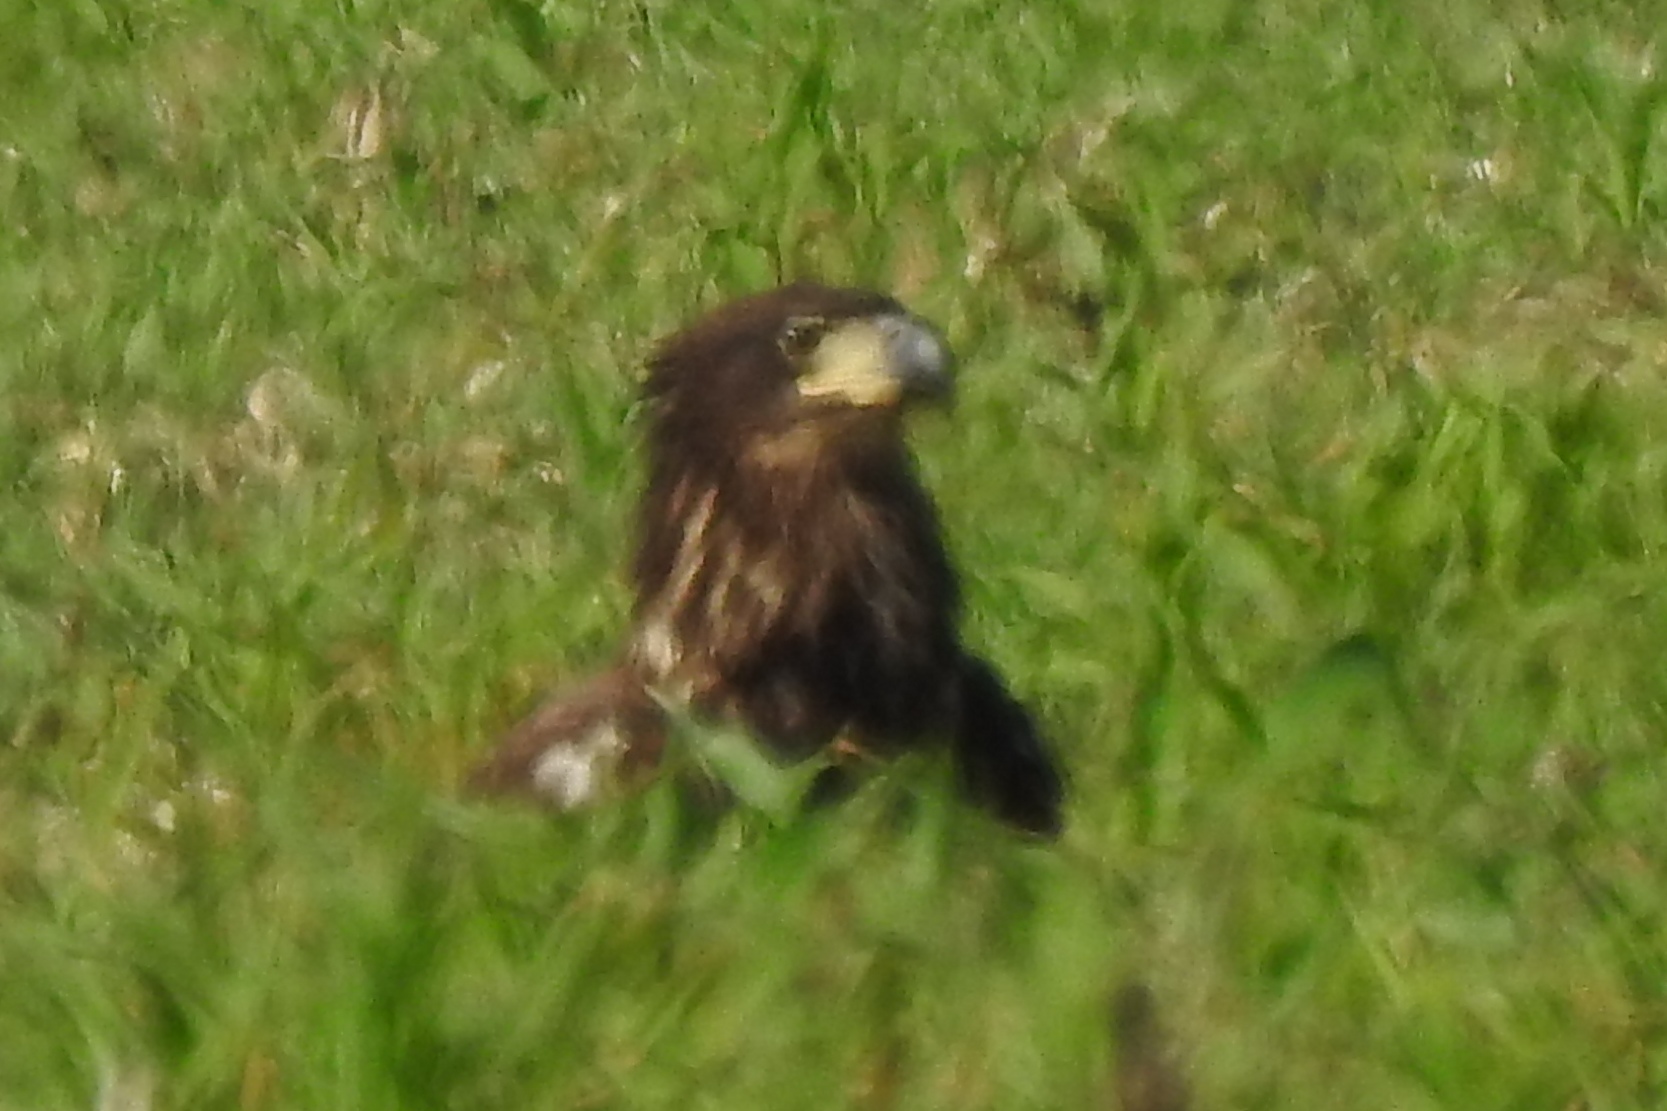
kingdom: Animalia
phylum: Chordata
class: Aves
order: Accipitriformes
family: Accipitridae
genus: Haliaeetus
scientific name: Haliaeetus leucocephalus
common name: Bald eagle
